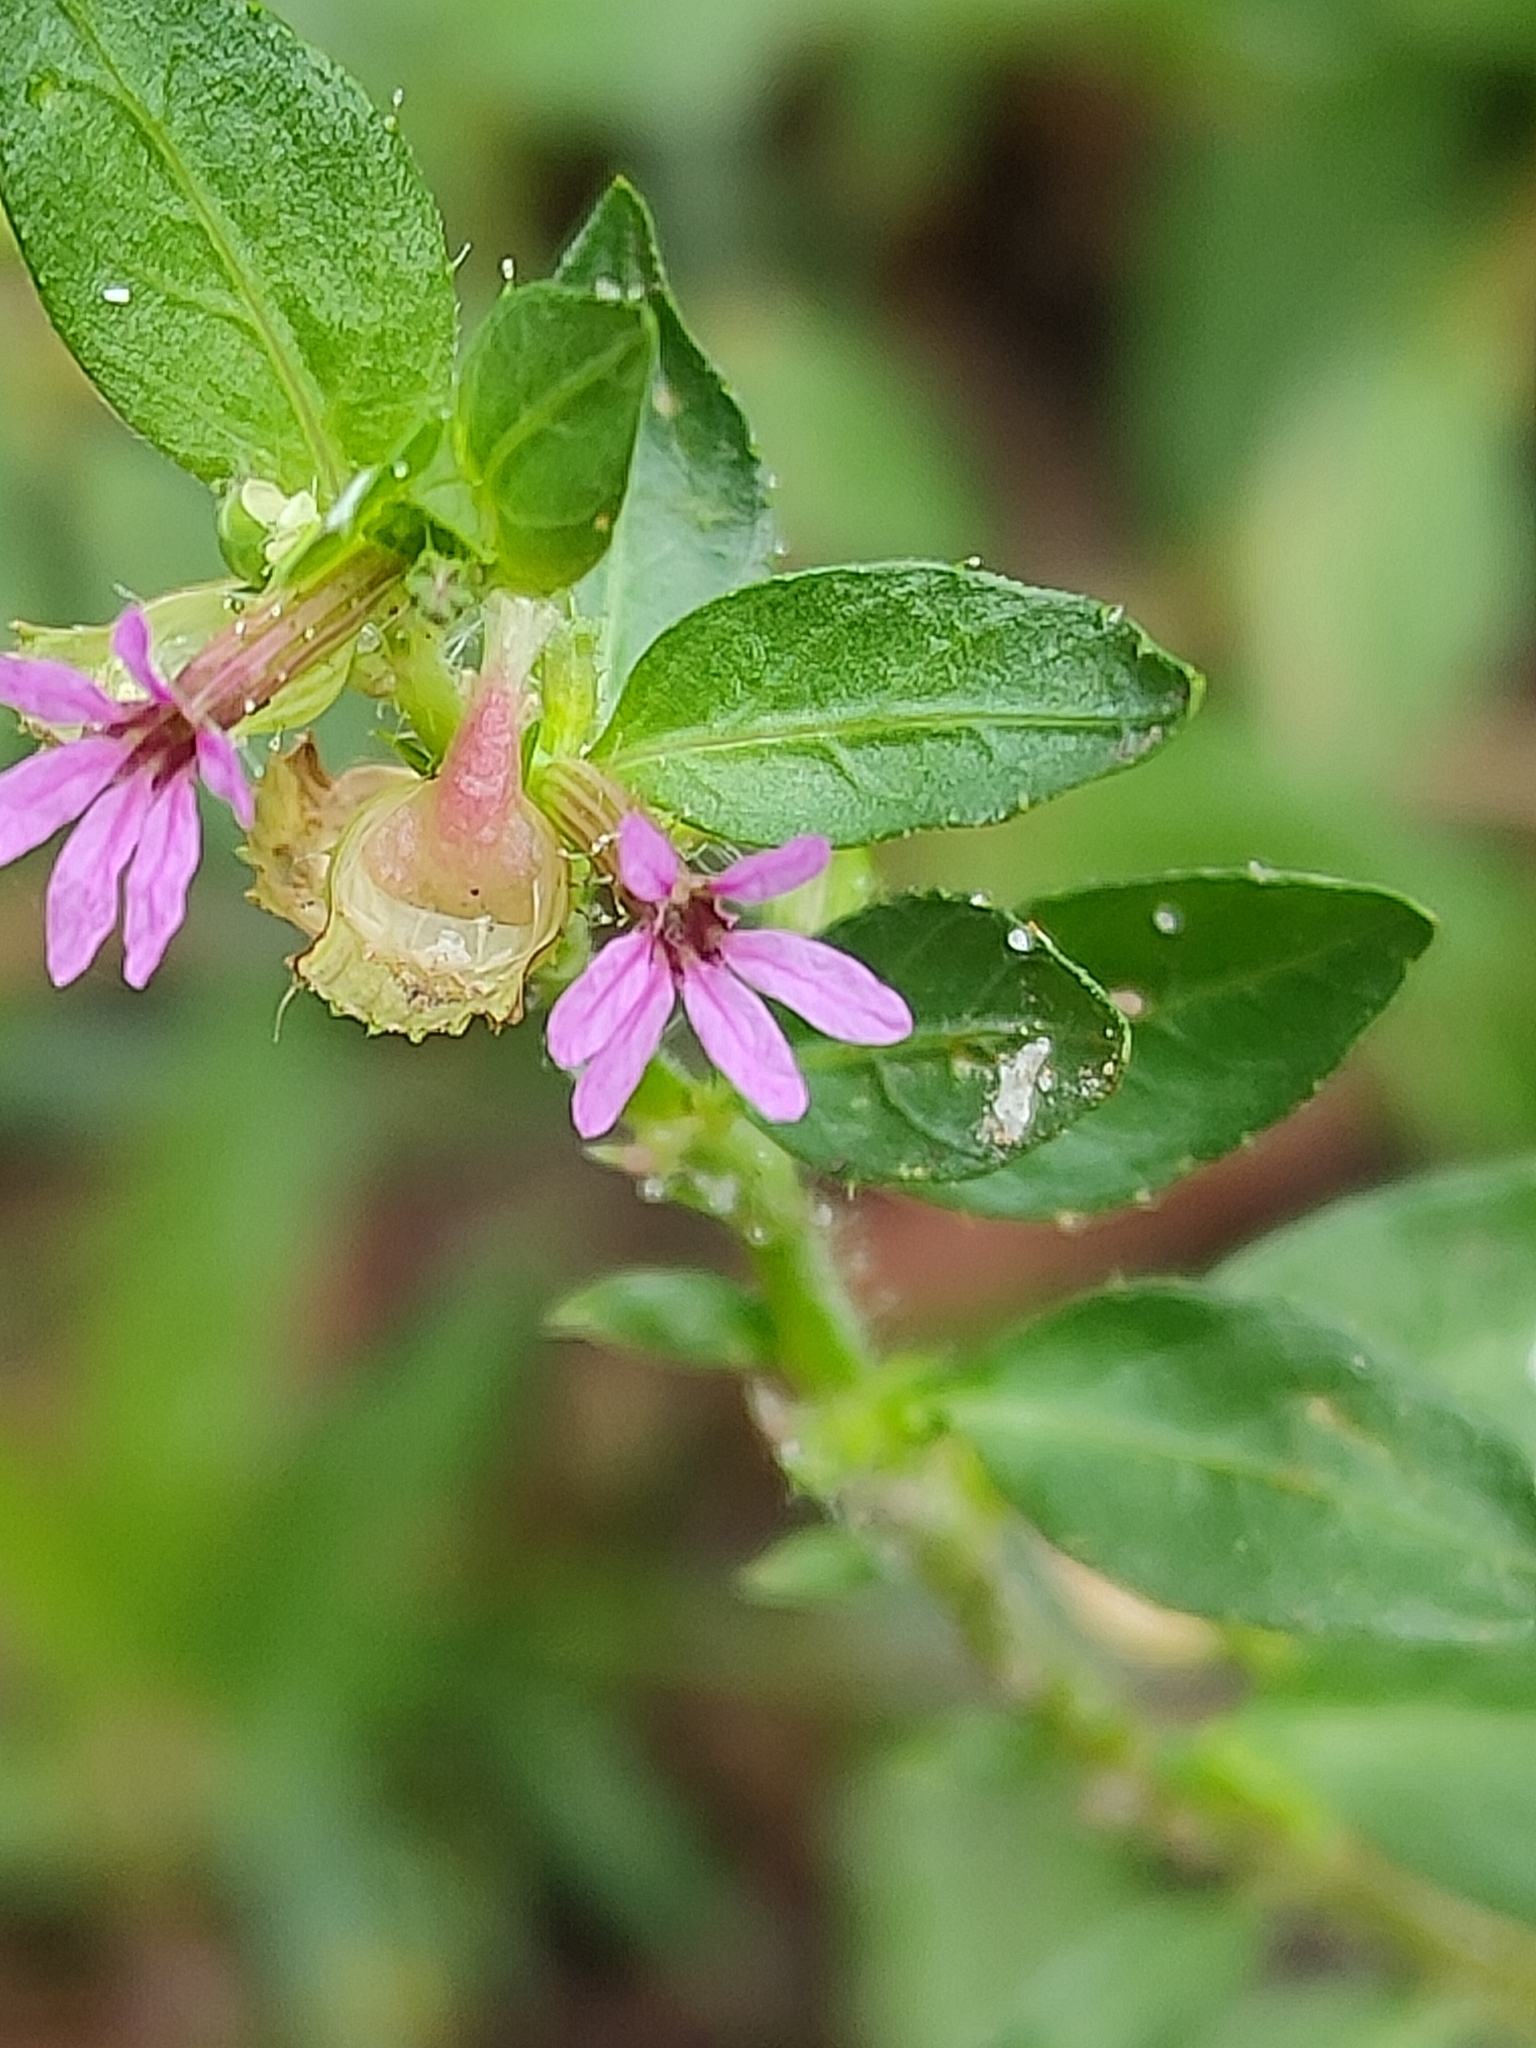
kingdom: Plantae
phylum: Tracheophyta
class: Magnoliopsida
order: Myrtales
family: Lythraceae
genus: Cuphea
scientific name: Cuphea carthagenensis
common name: Colombian waxweed
